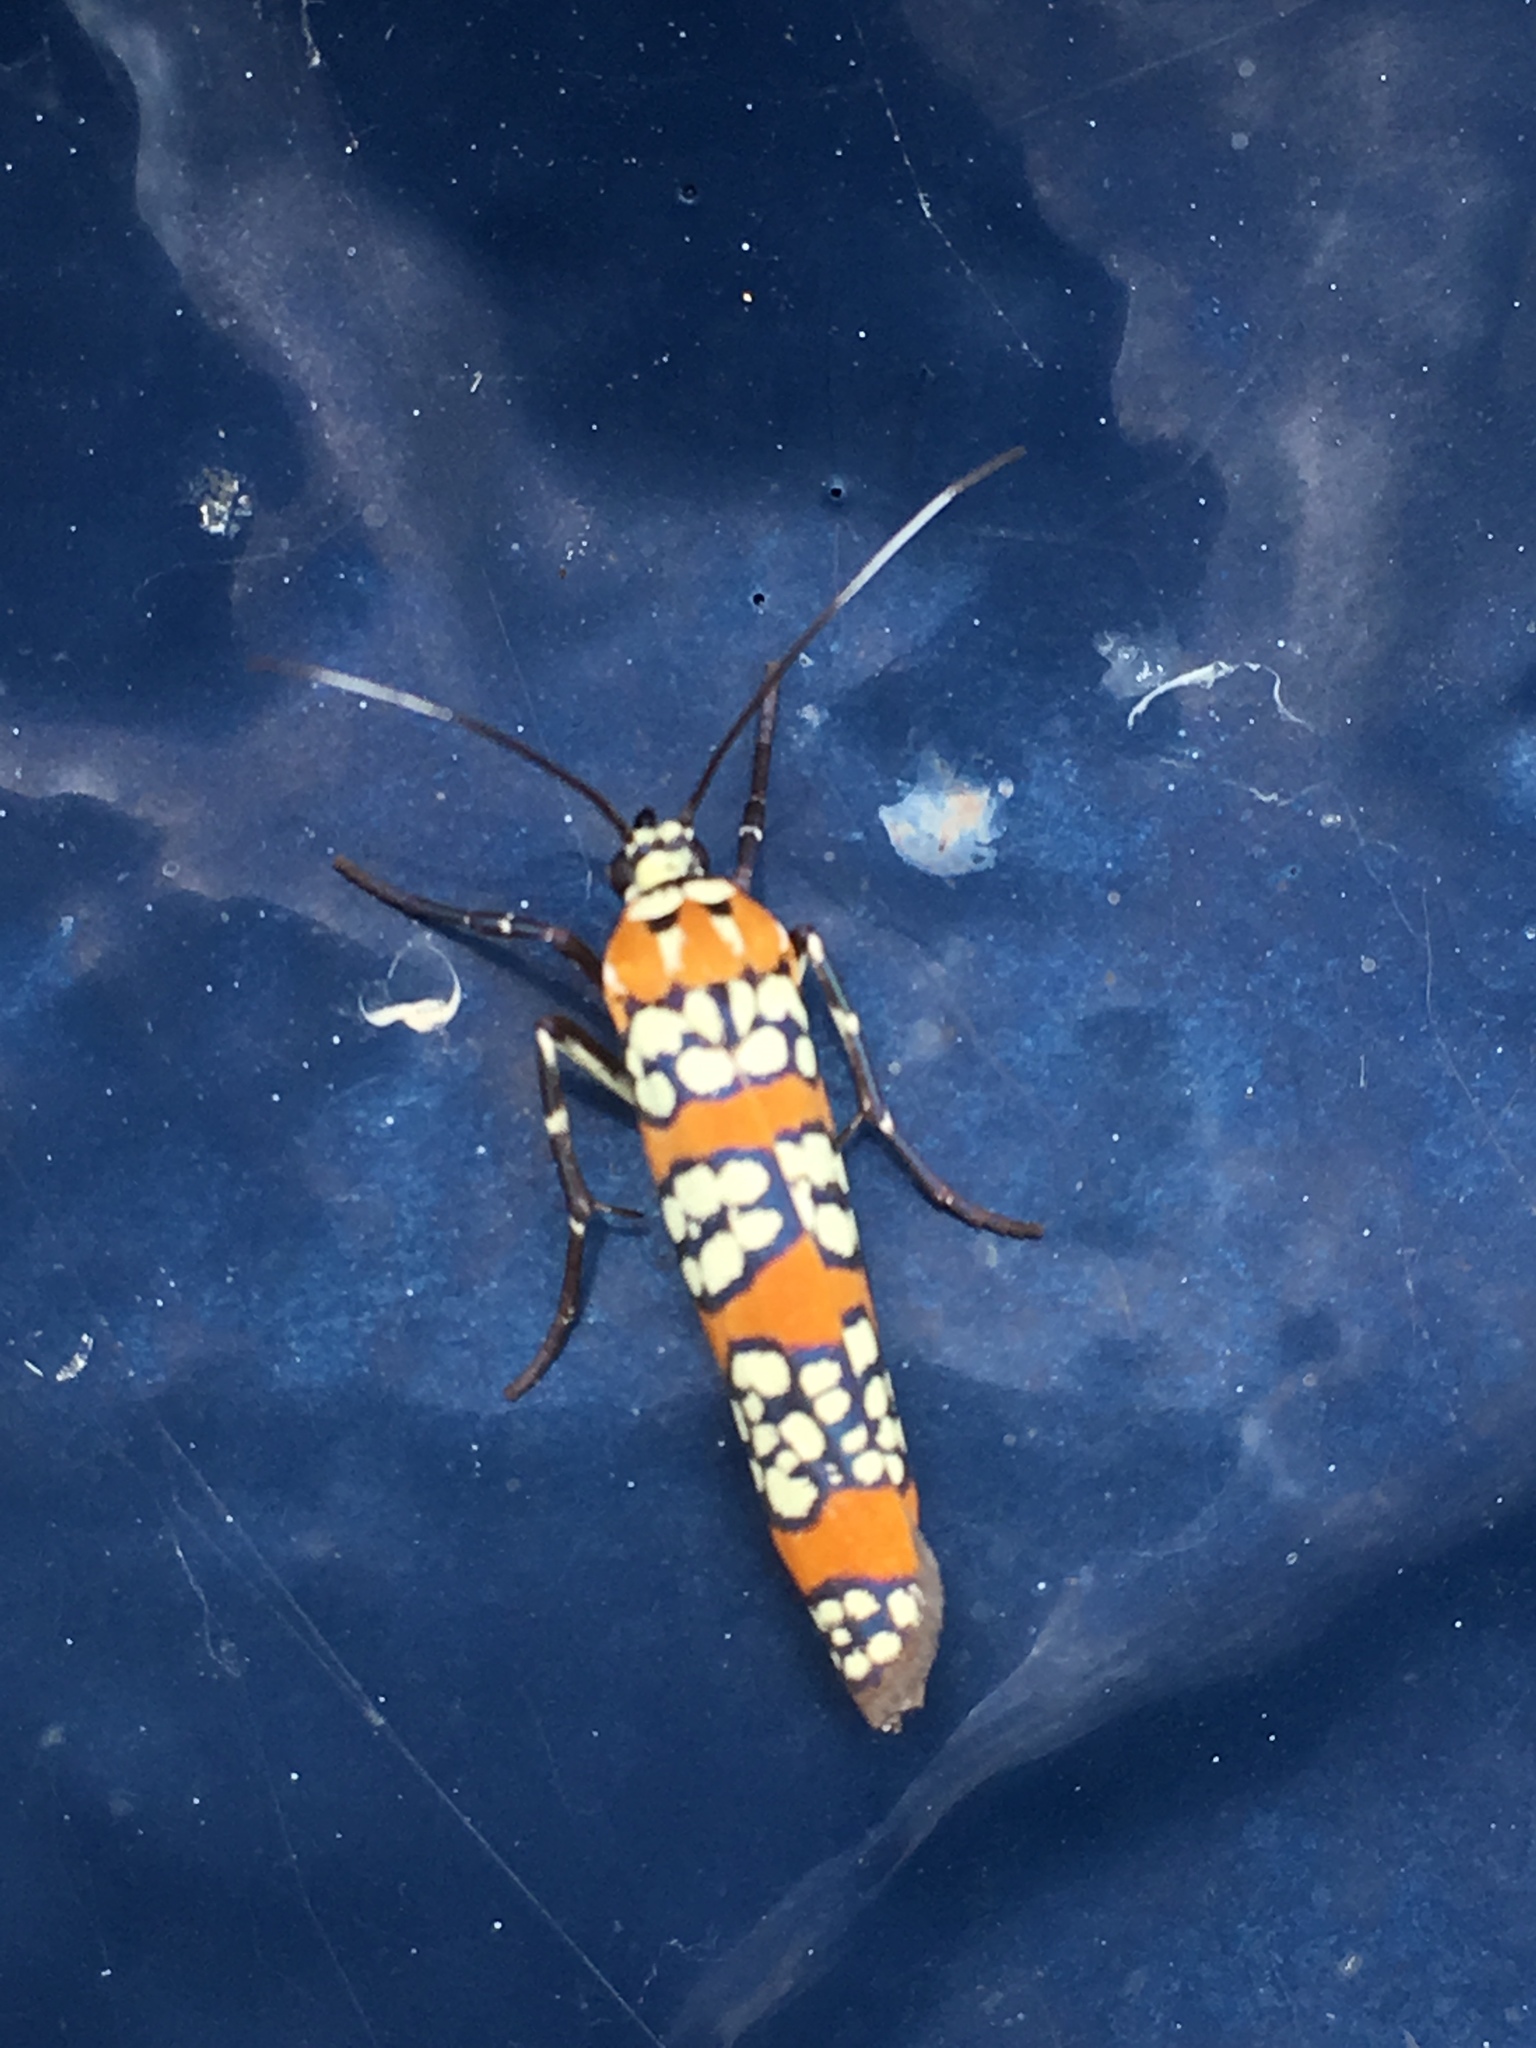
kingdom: Animalia
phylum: Arthropoda
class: Insecta
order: Lepidoptera
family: Attevidae
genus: Atteva
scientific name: Atteva punctella
